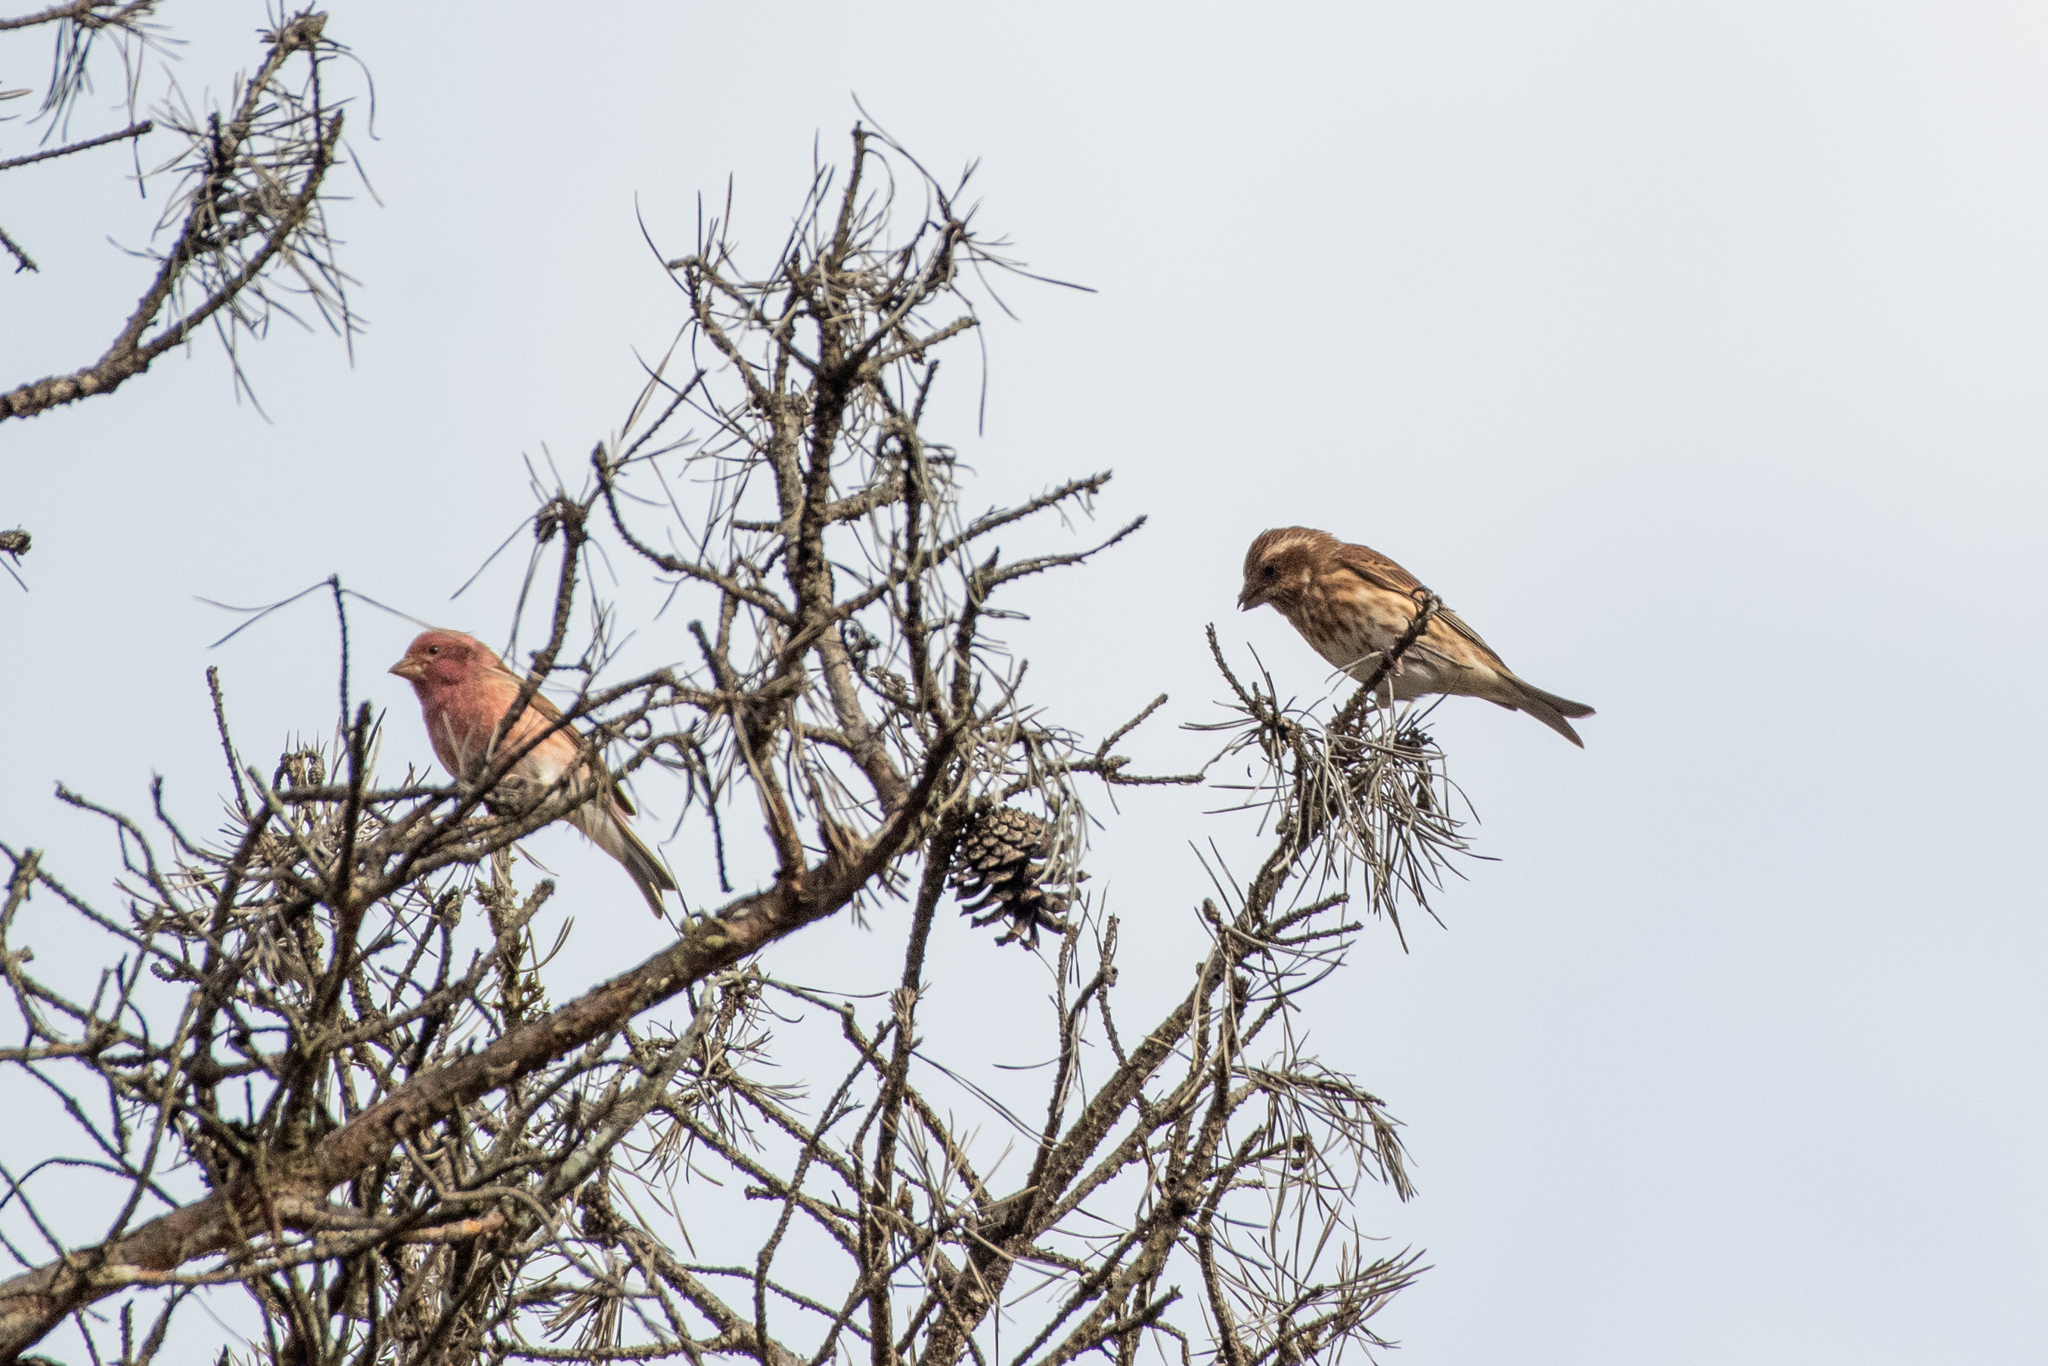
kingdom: Animalia
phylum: Chordata
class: Aves
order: Passeriformes
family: Fringillidae
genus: Haemorhous
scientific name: Haemorhous purpureus
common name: Purple finch
